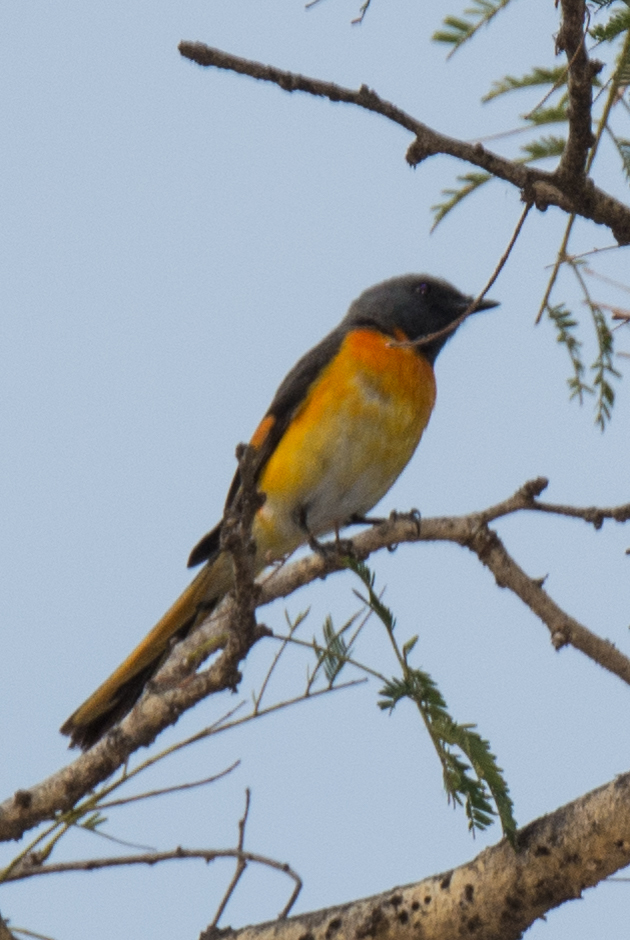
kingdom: Animalia
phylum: Chordata
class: Aves
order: Passeriformes
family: Campephagidae
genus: Pericrocotus
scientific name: Pericrocotus cinnamomeus
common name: Small minivet
